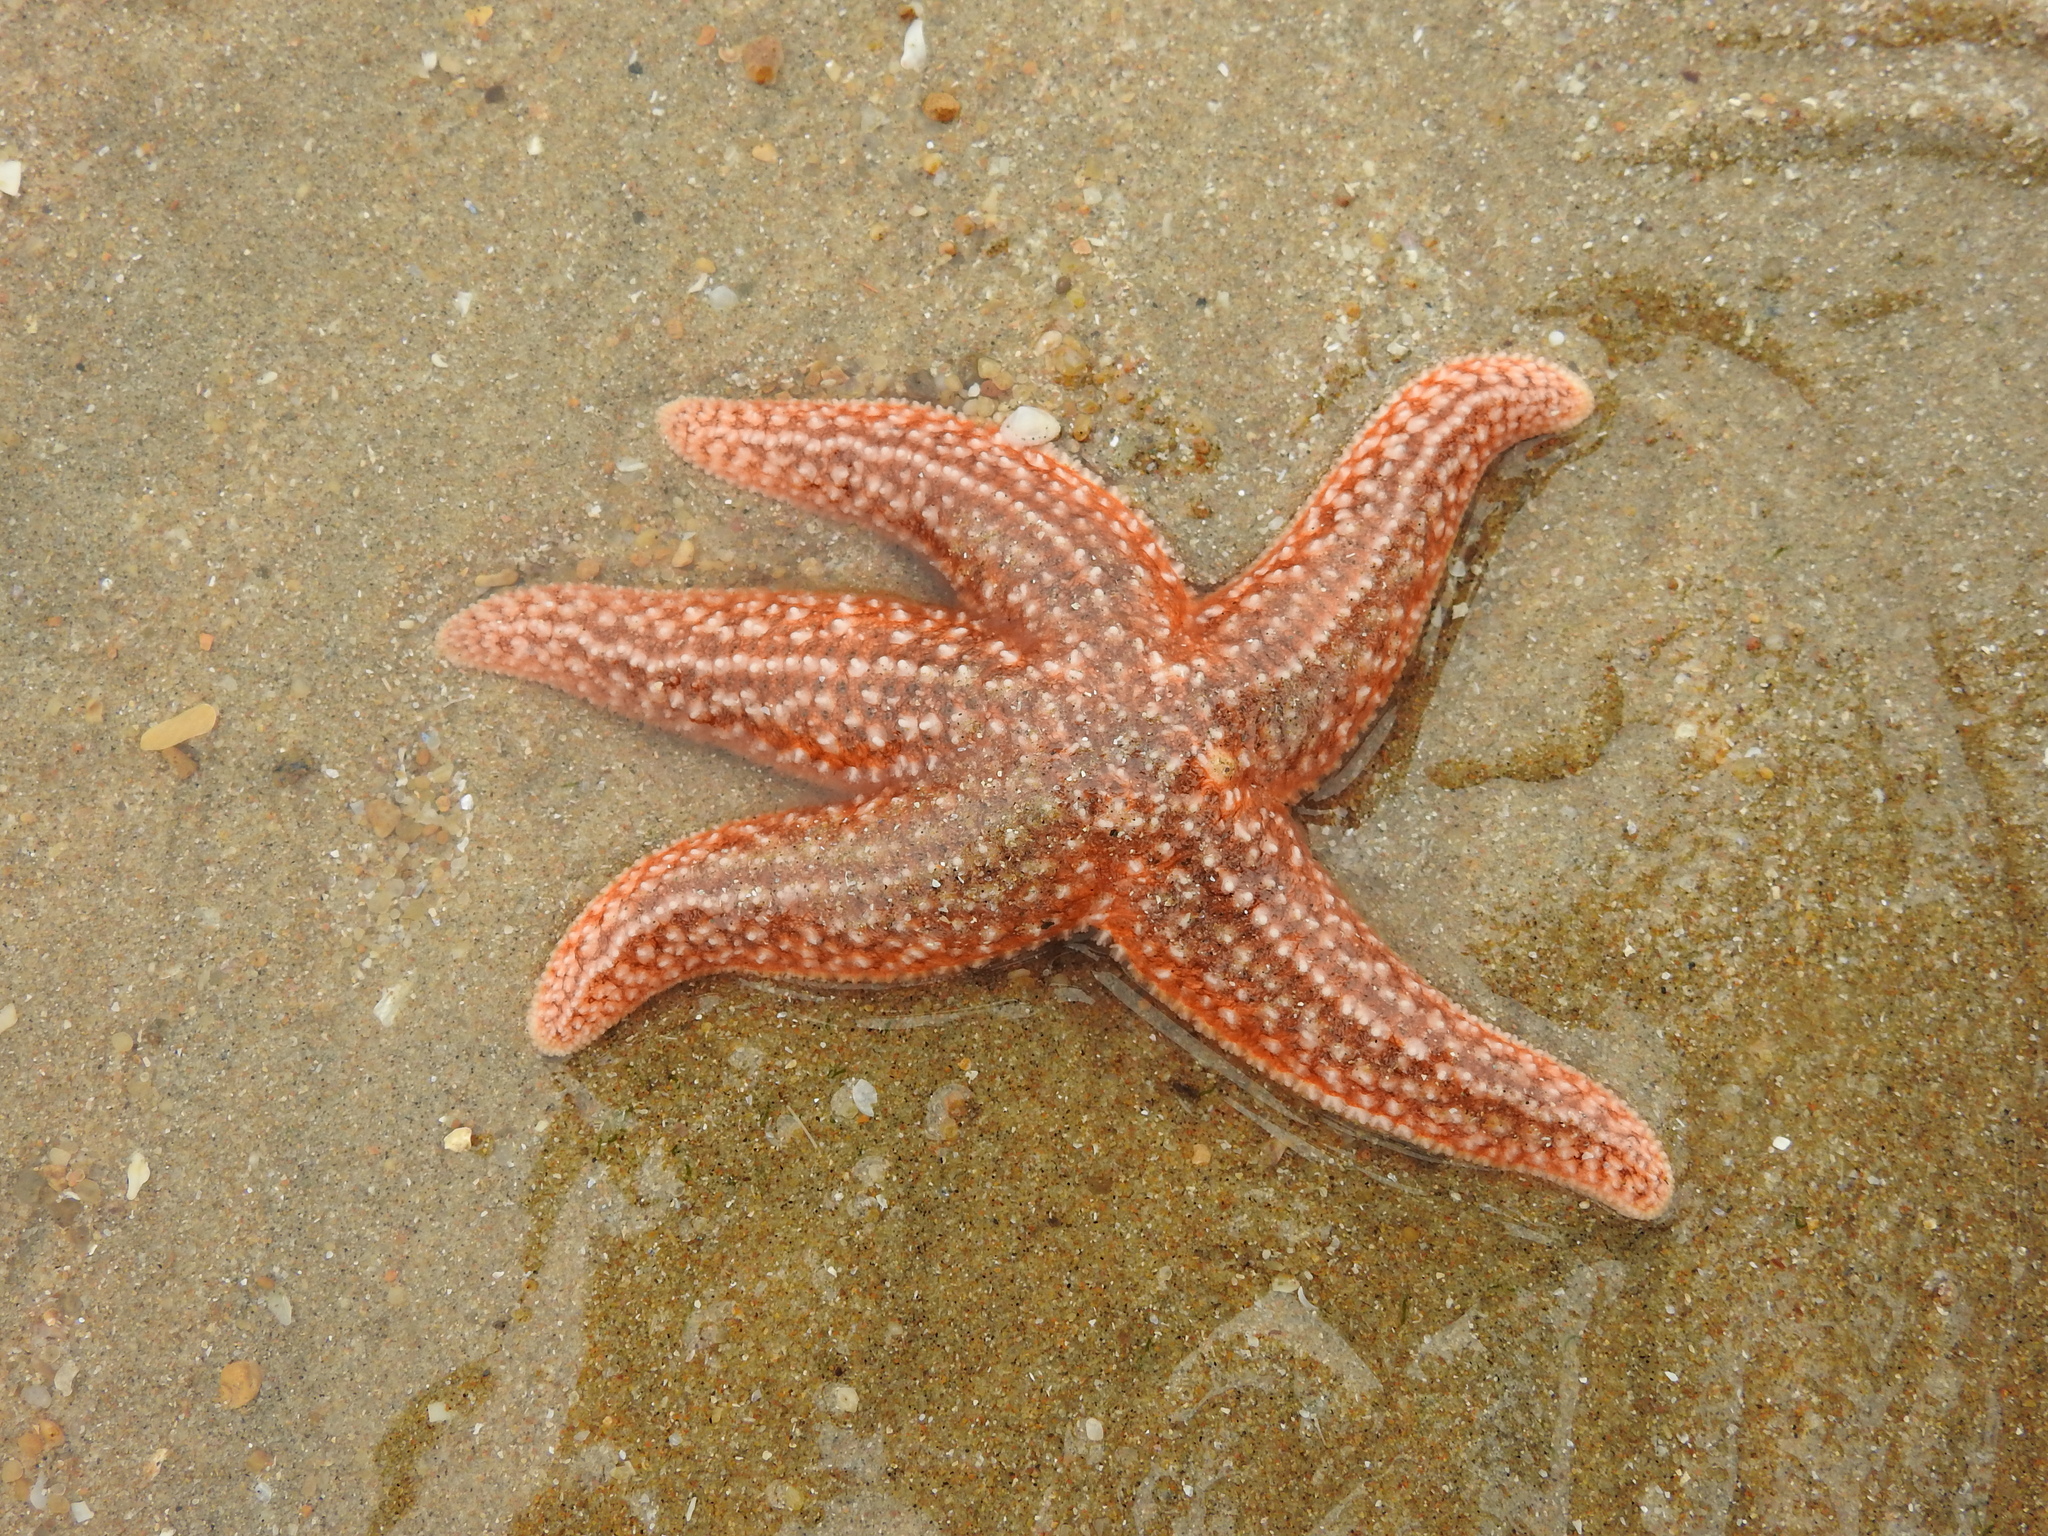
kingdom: Animalia
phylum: Echinodermata
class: Asteroidea
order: Forcipulatida
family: Asteriidae
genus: Asterias
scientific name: Asterias rubens
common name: Common starfish
